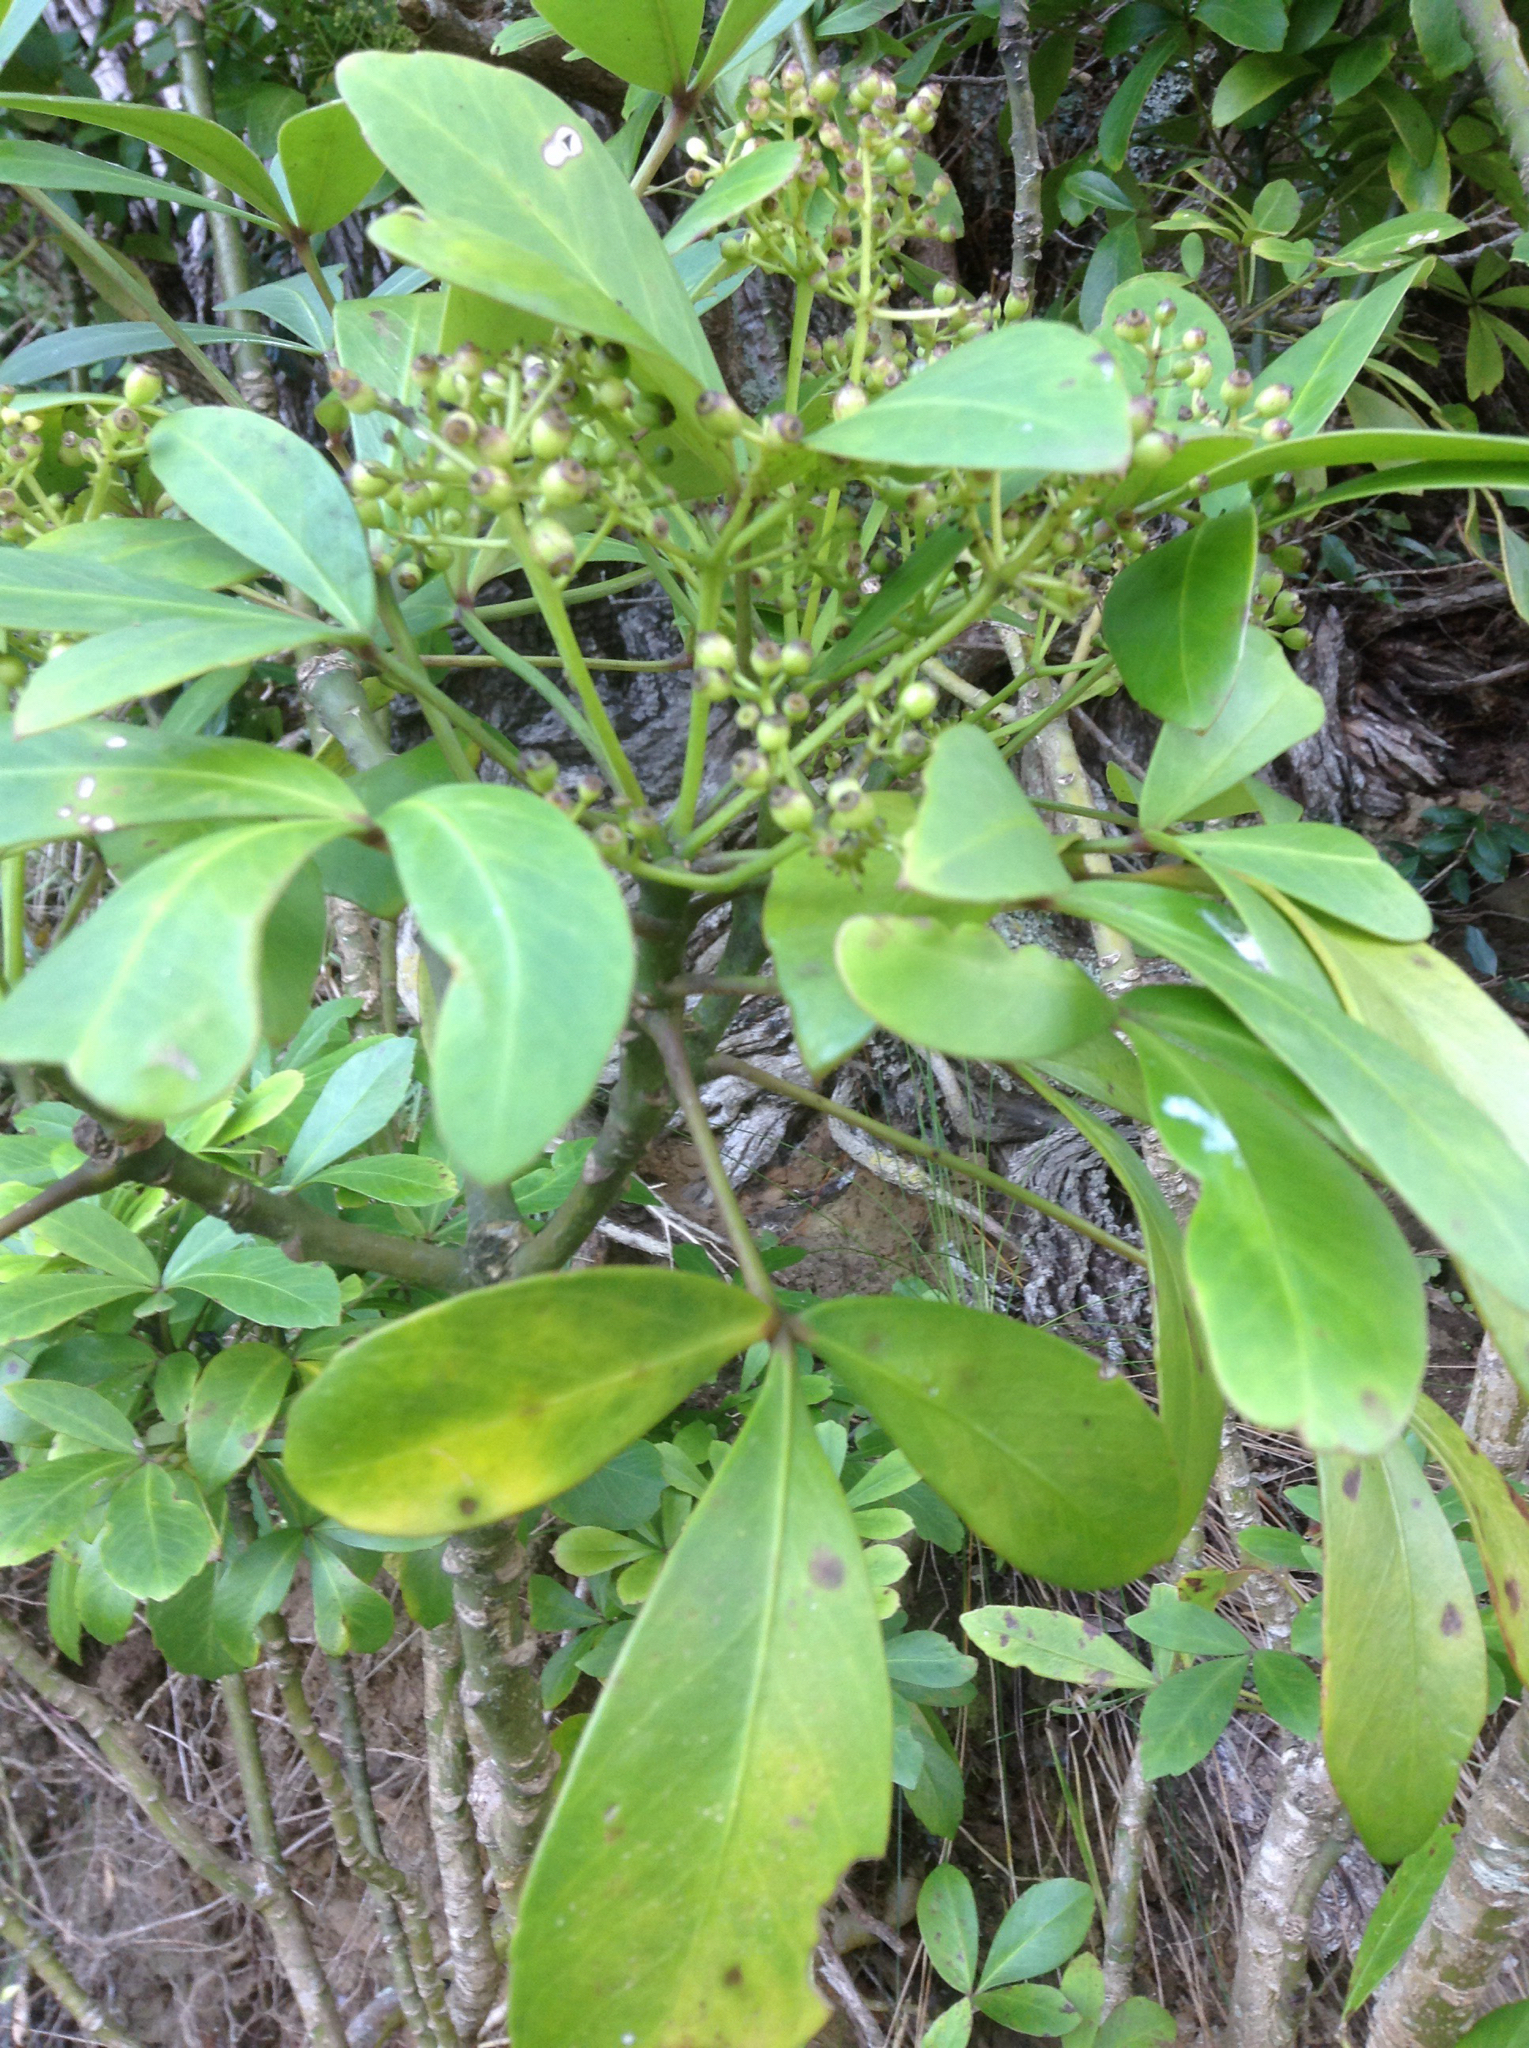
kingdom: Plantae
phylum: Tracheophyta
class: Magnoliopsida
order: Apiales
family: Araliaceae
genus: Pseudopanax
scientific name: Pseudopanax lessonii
